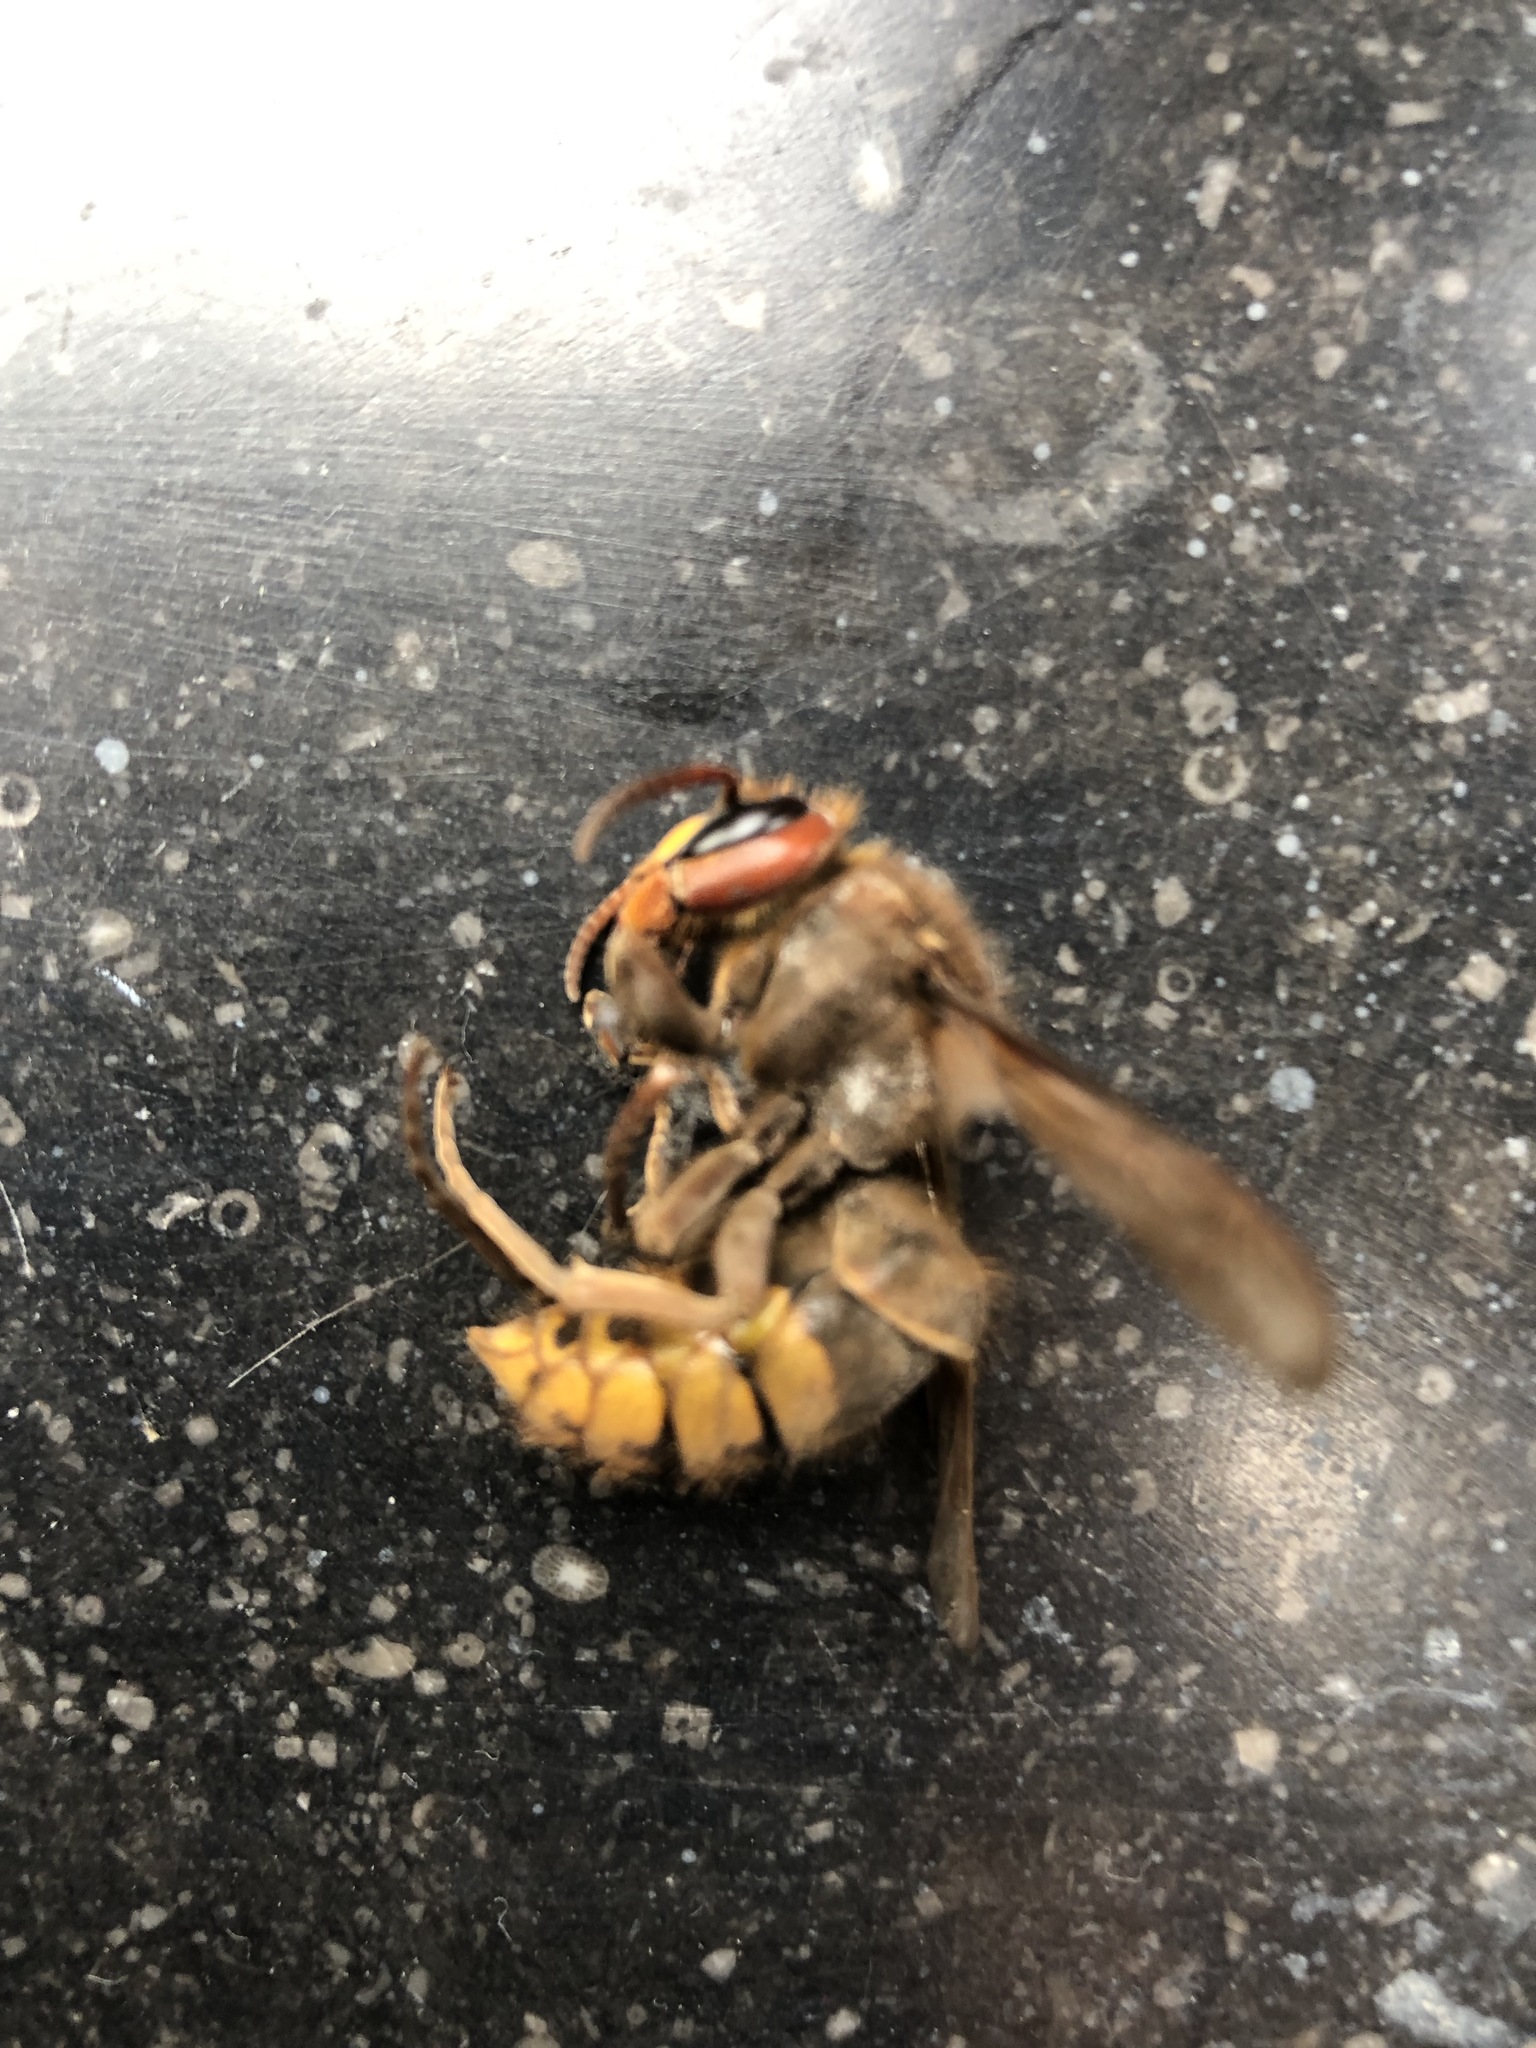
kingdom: Animalia
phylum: Arthropoda
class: Insecta
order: Hymenoptera
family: Vespidae
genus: Vespa
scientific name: Vespa crabro
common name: Hornet
